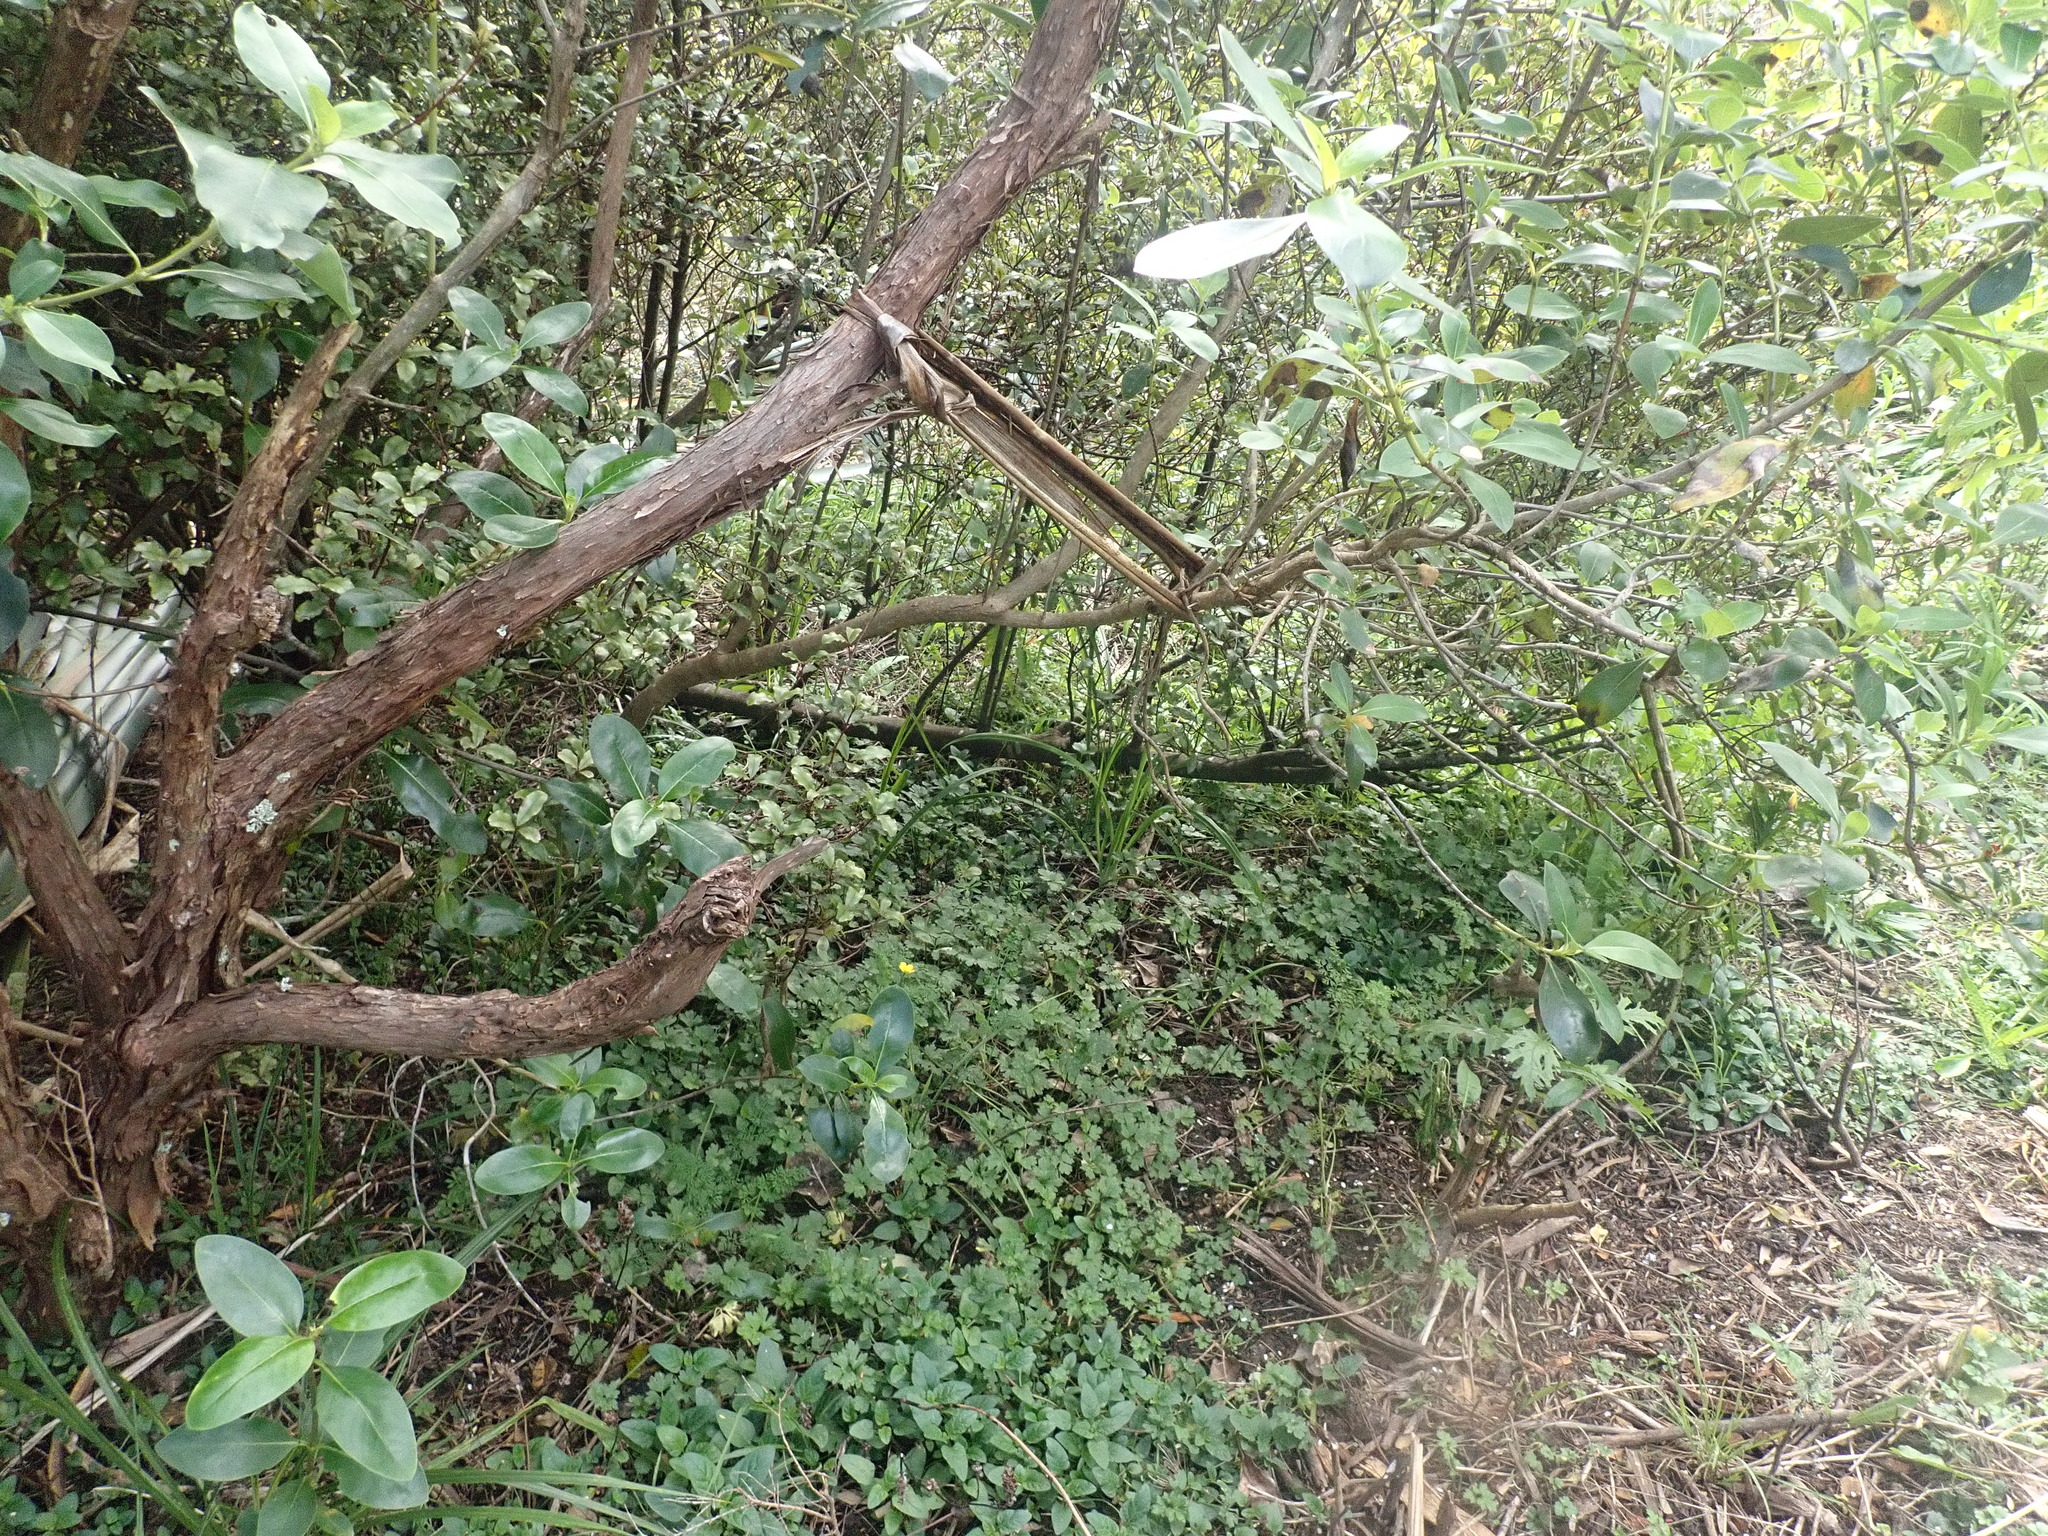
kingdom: Plantae
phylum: Tracheophyta
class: Magnoliopsida
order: Gentianales
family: Rubiaceae
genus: Coprosma
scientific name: Coprosma robusta
